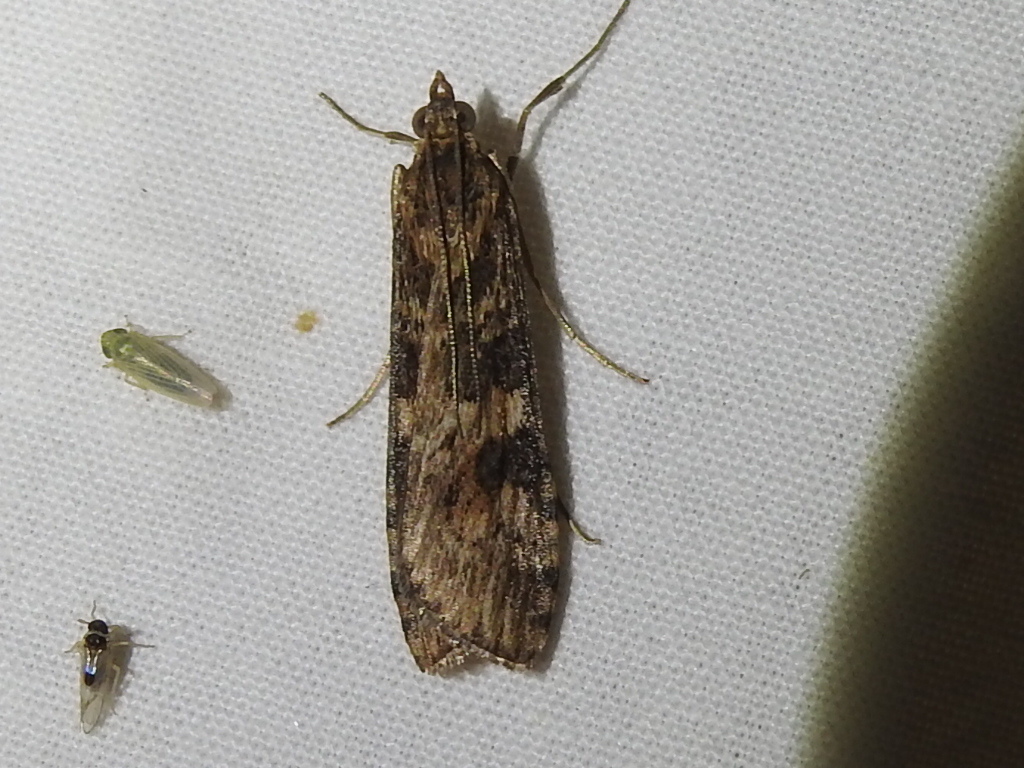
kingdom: Animalia
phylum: Arthropoda
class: Insecta
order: Lepidoptera
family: Crambidae
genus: Nomophila
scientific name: Nomophila nearctica
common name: American rush veneer
